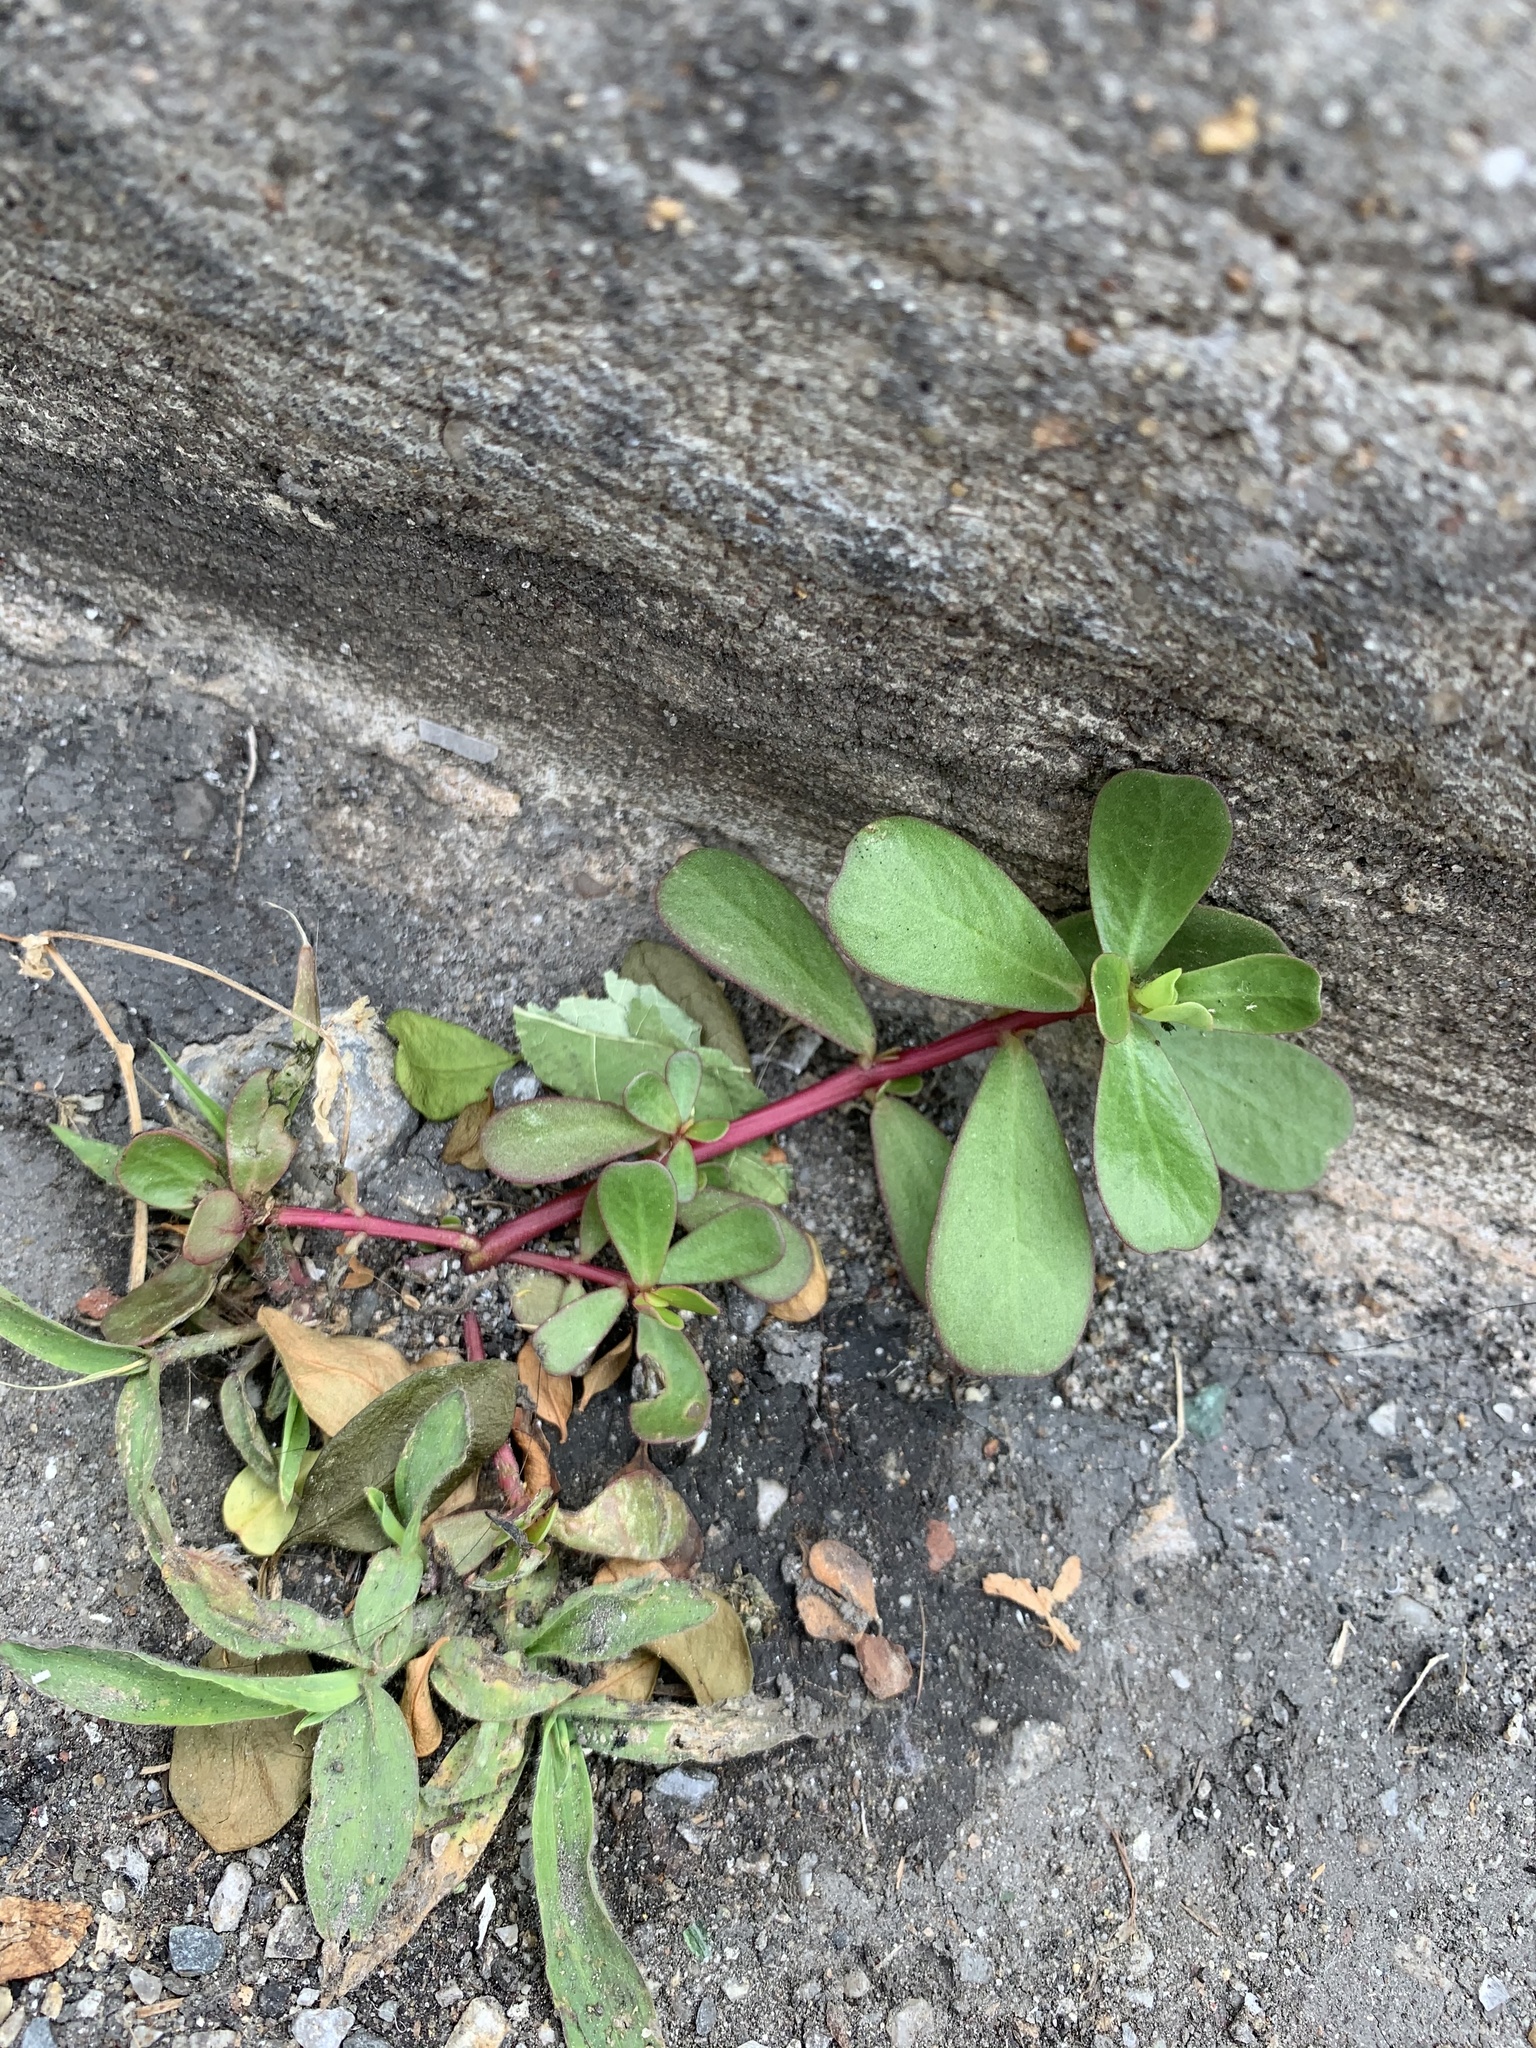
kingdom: Plantae
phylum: Tracheophyta
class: Magnoliopsida
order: Caryophyllales
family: Portulacaceae
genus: Portulaca
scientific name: Portulaca oleracea
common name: Common purslane
